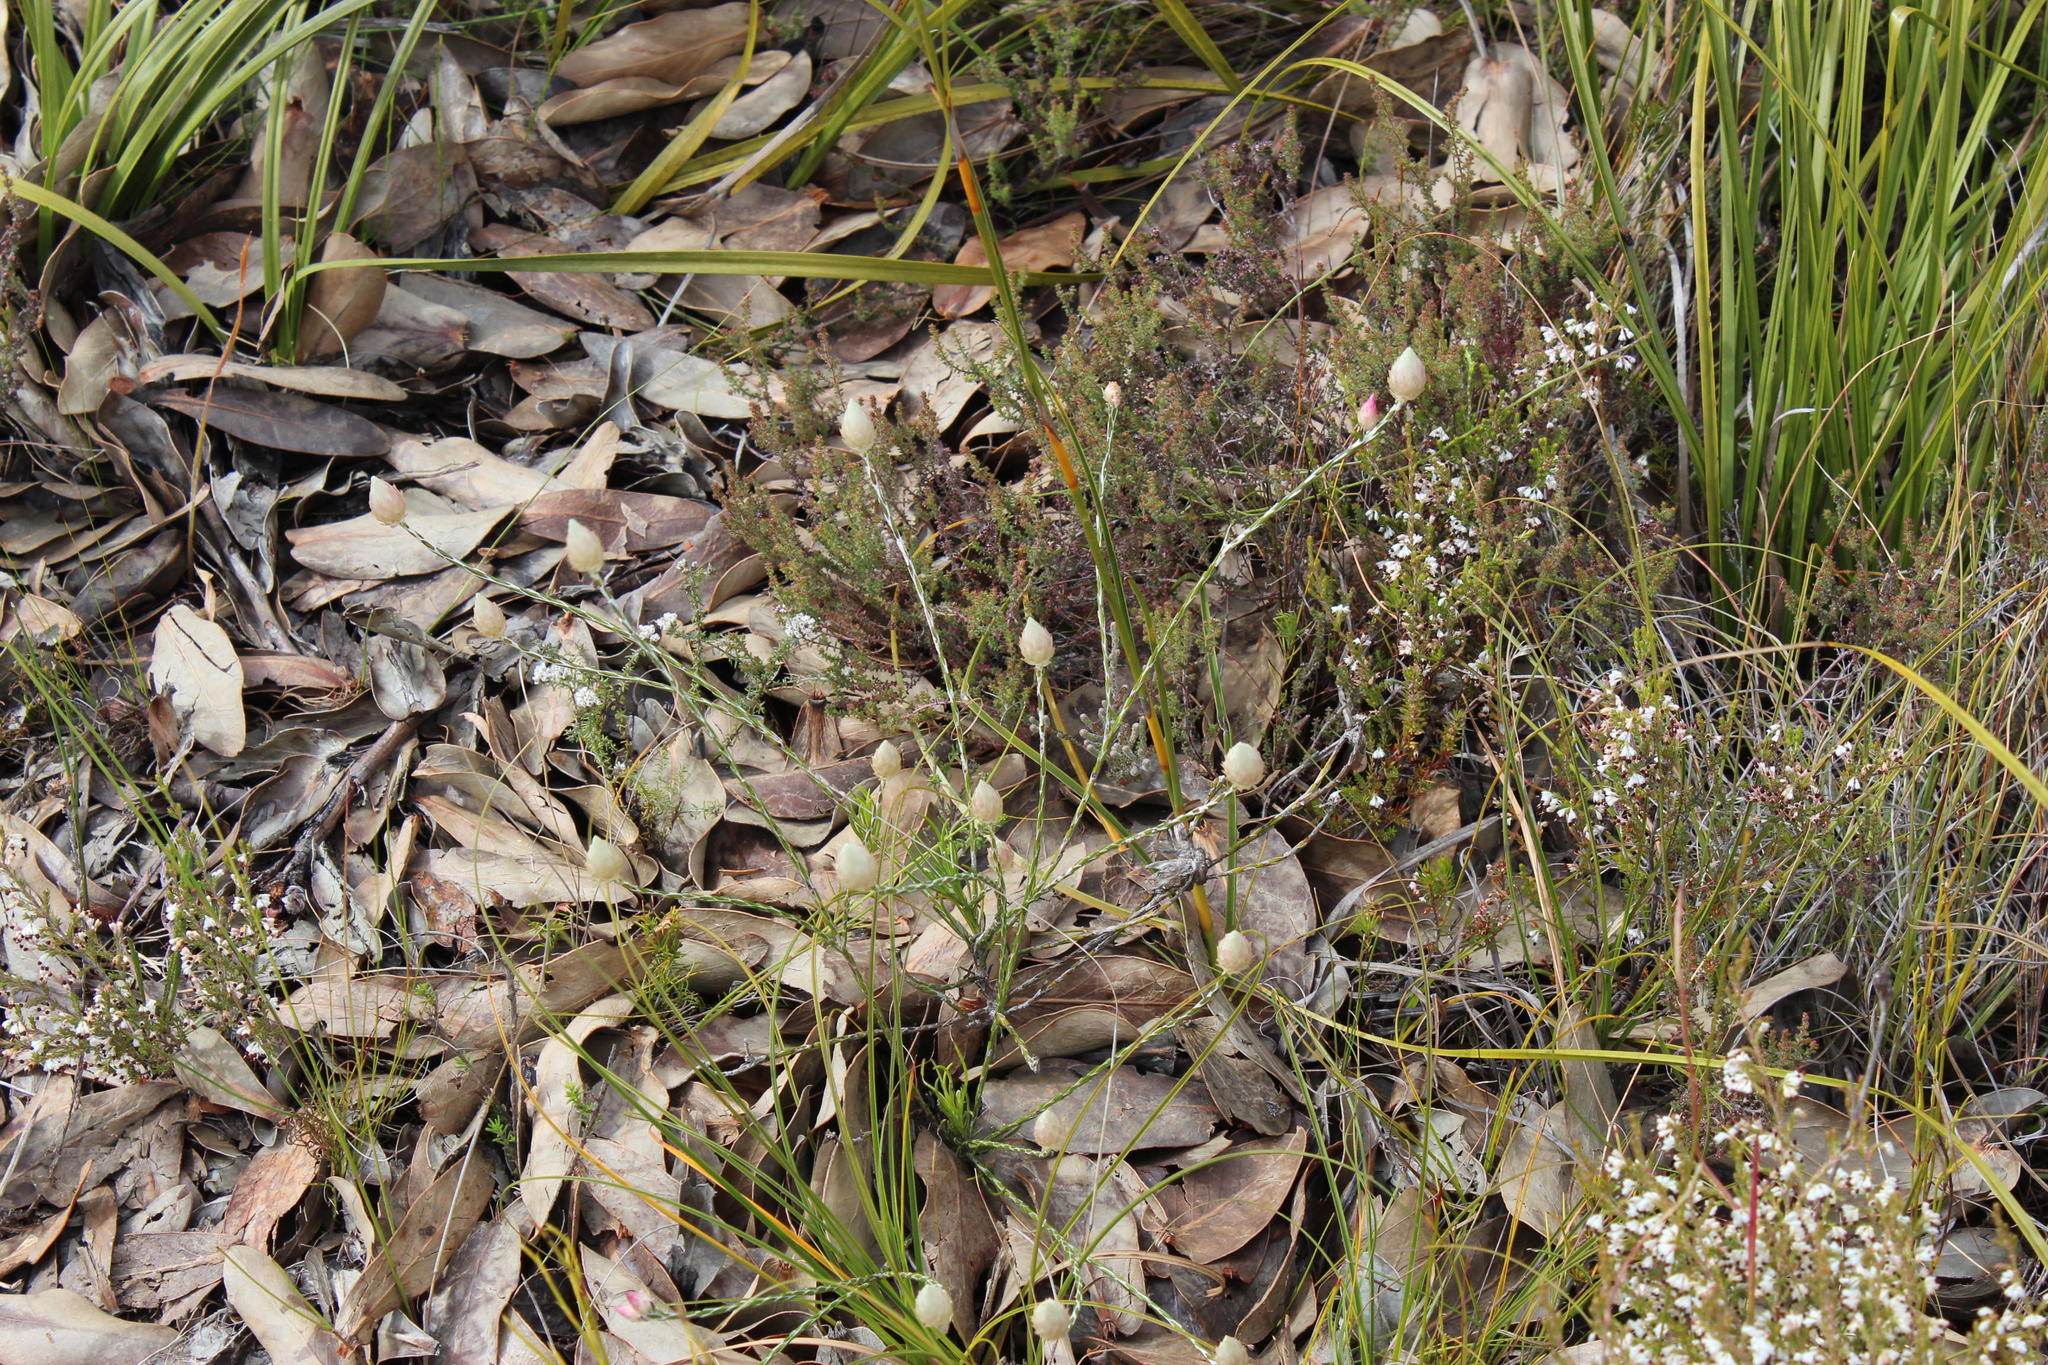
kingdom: Plantae
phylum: Tracheophyta
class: Magnoliopsida
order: Asterales
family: Asteraceae
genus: Edmondia
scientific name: Edmondia sesamoides
